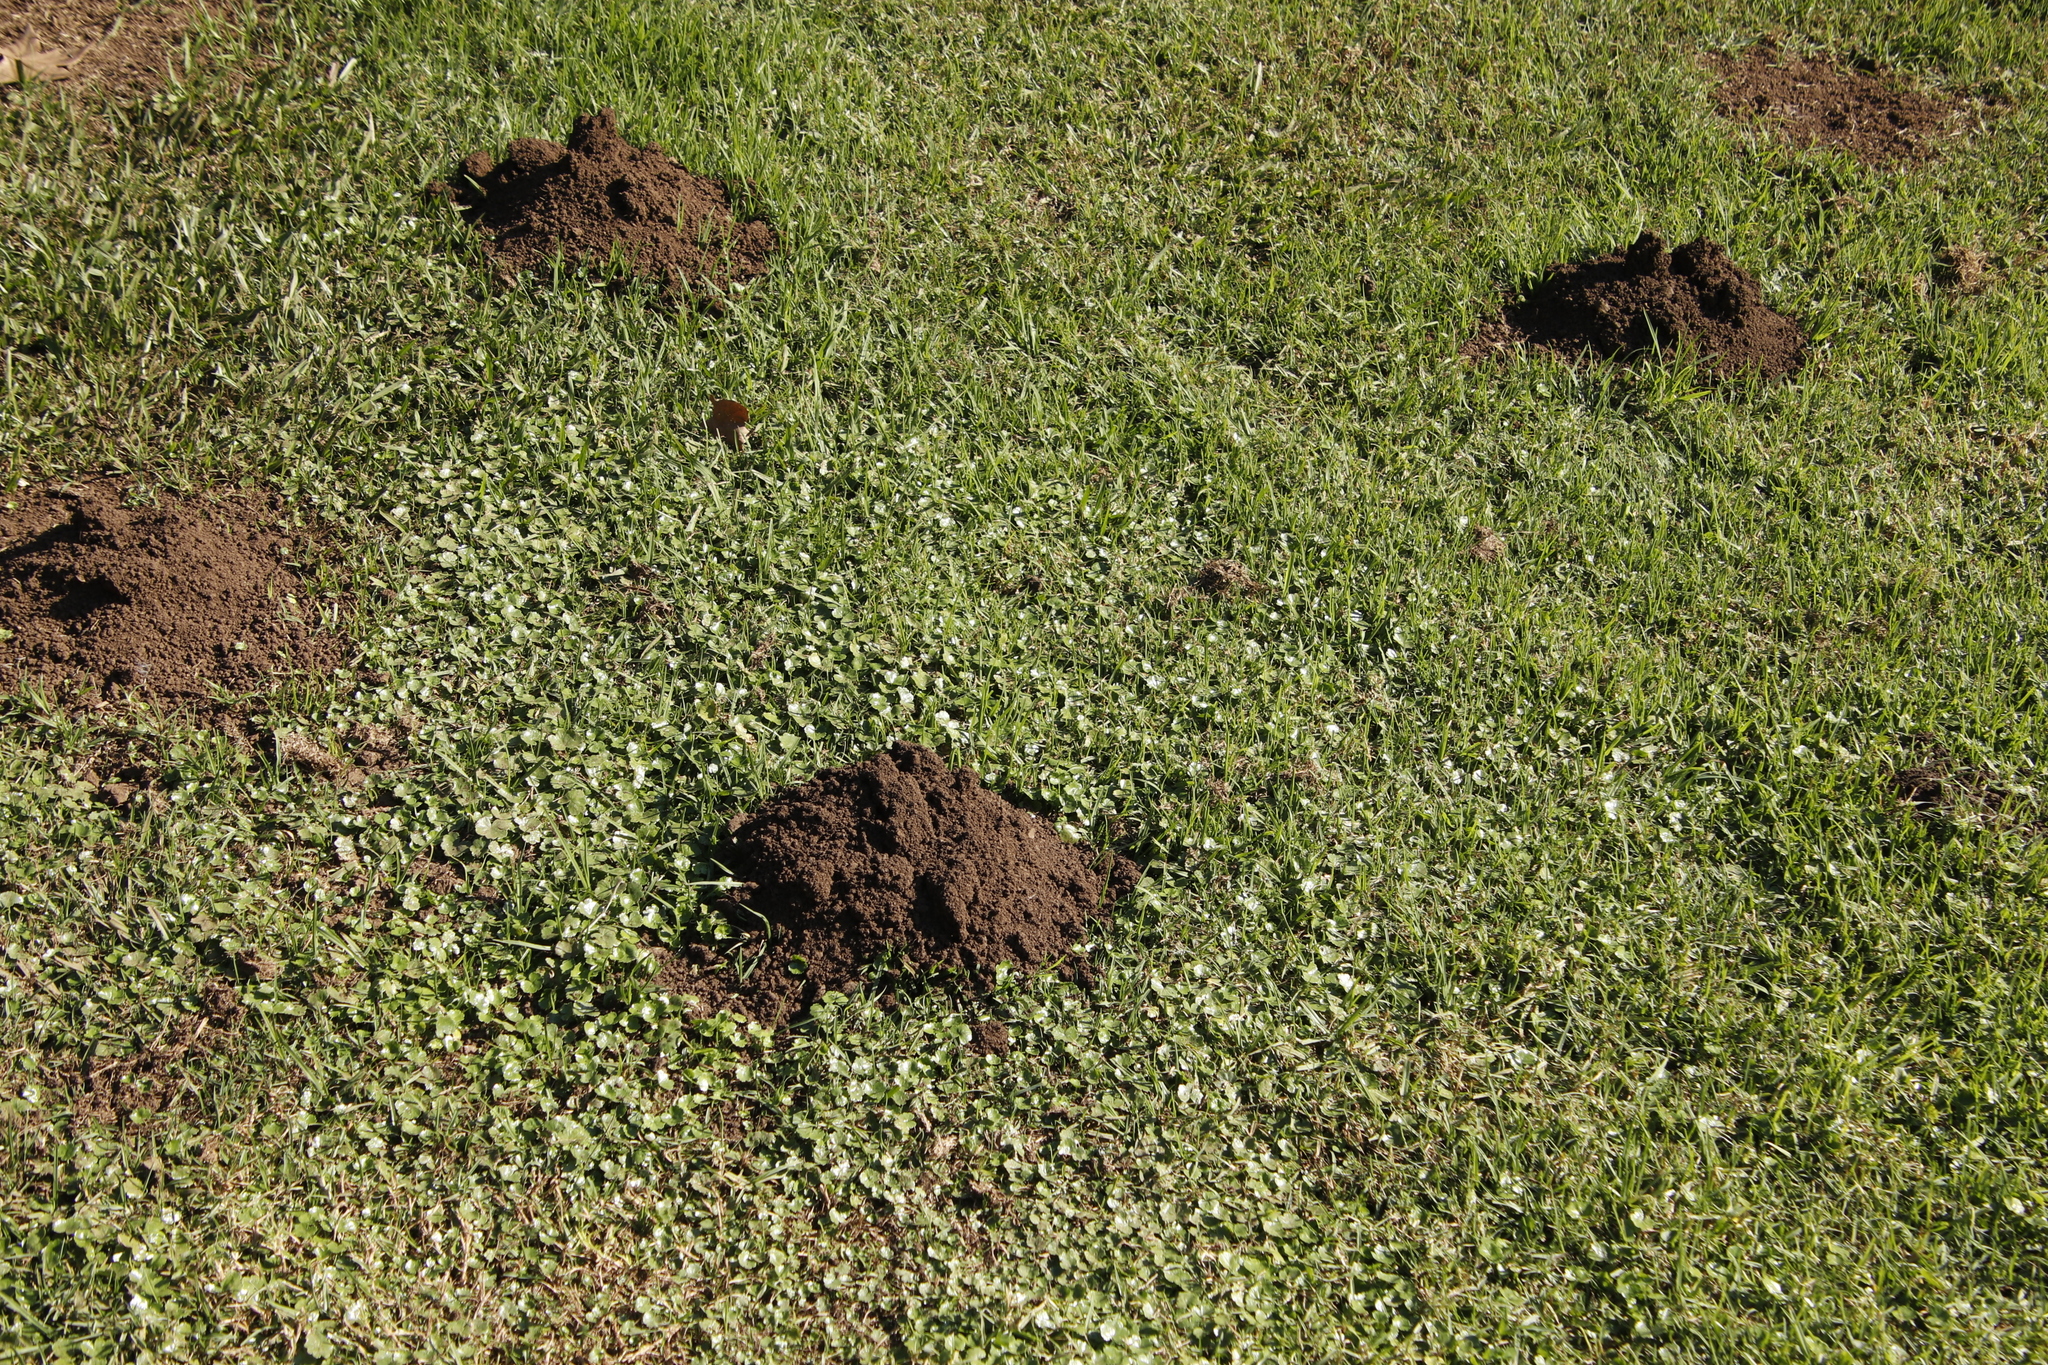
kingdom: Animalia
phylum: Chordata
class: Mammalia
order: Rodentia
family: Bathyergidae
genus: Cryptomys
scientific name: Cryptomys natalensis
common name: Natal mole-rat
